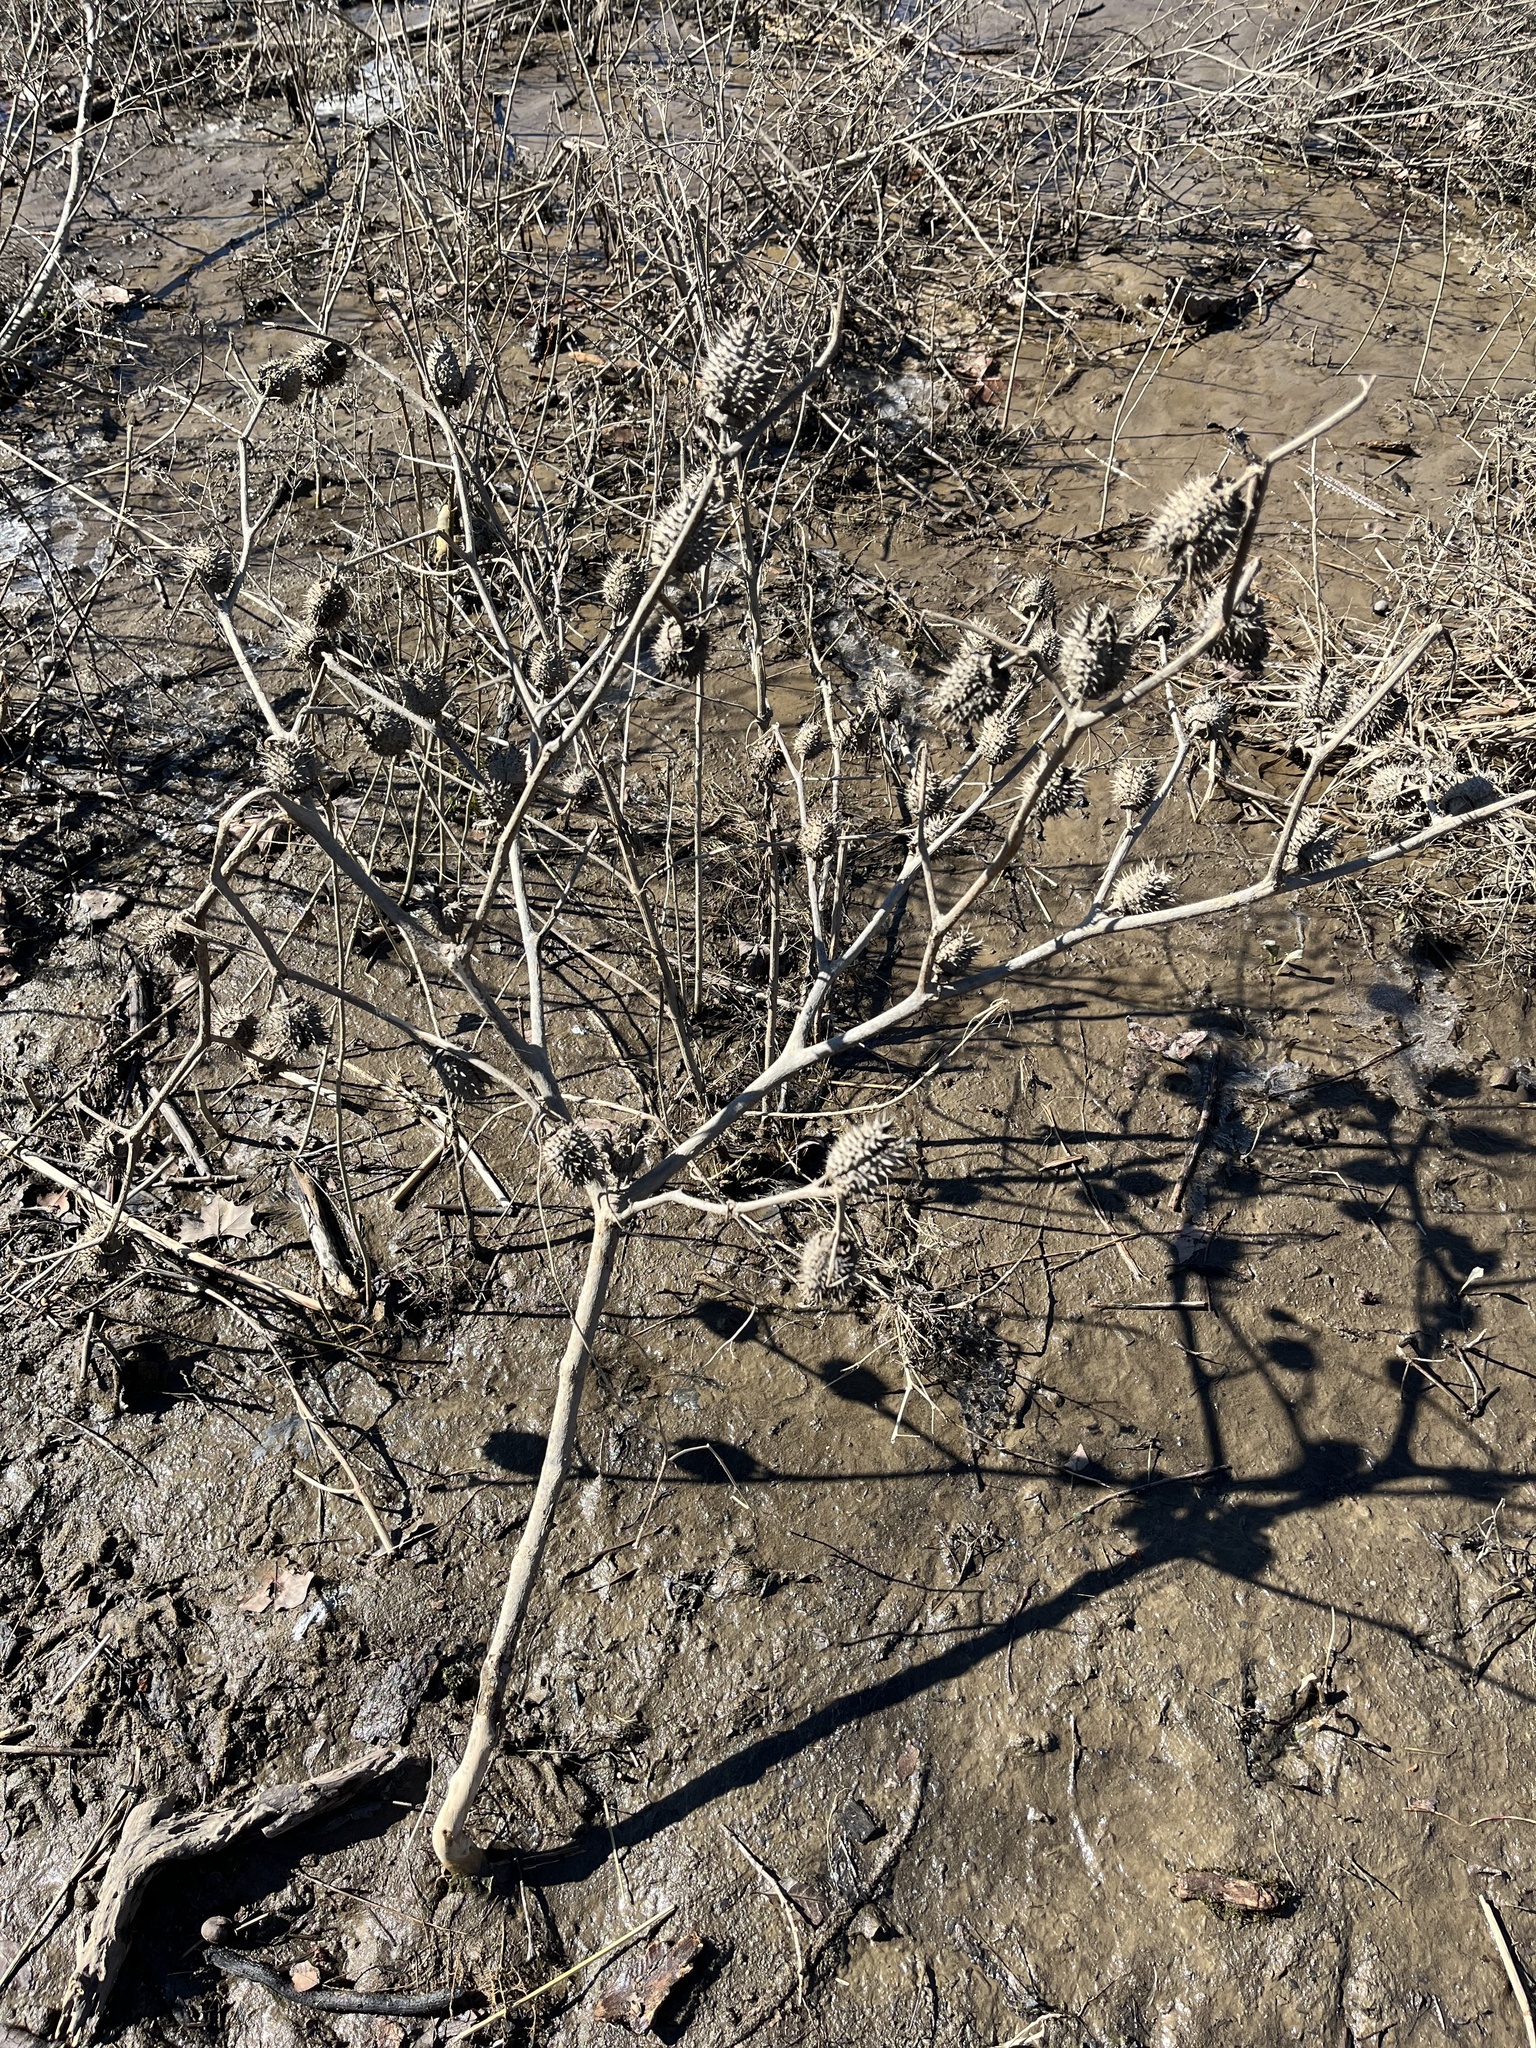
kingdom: Plantae
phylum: Tracheophyta
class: Magnoliopsida
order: Solanales
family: Solanaceae
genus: Datura
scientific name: Datura stramonium
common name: Thorn-apple
